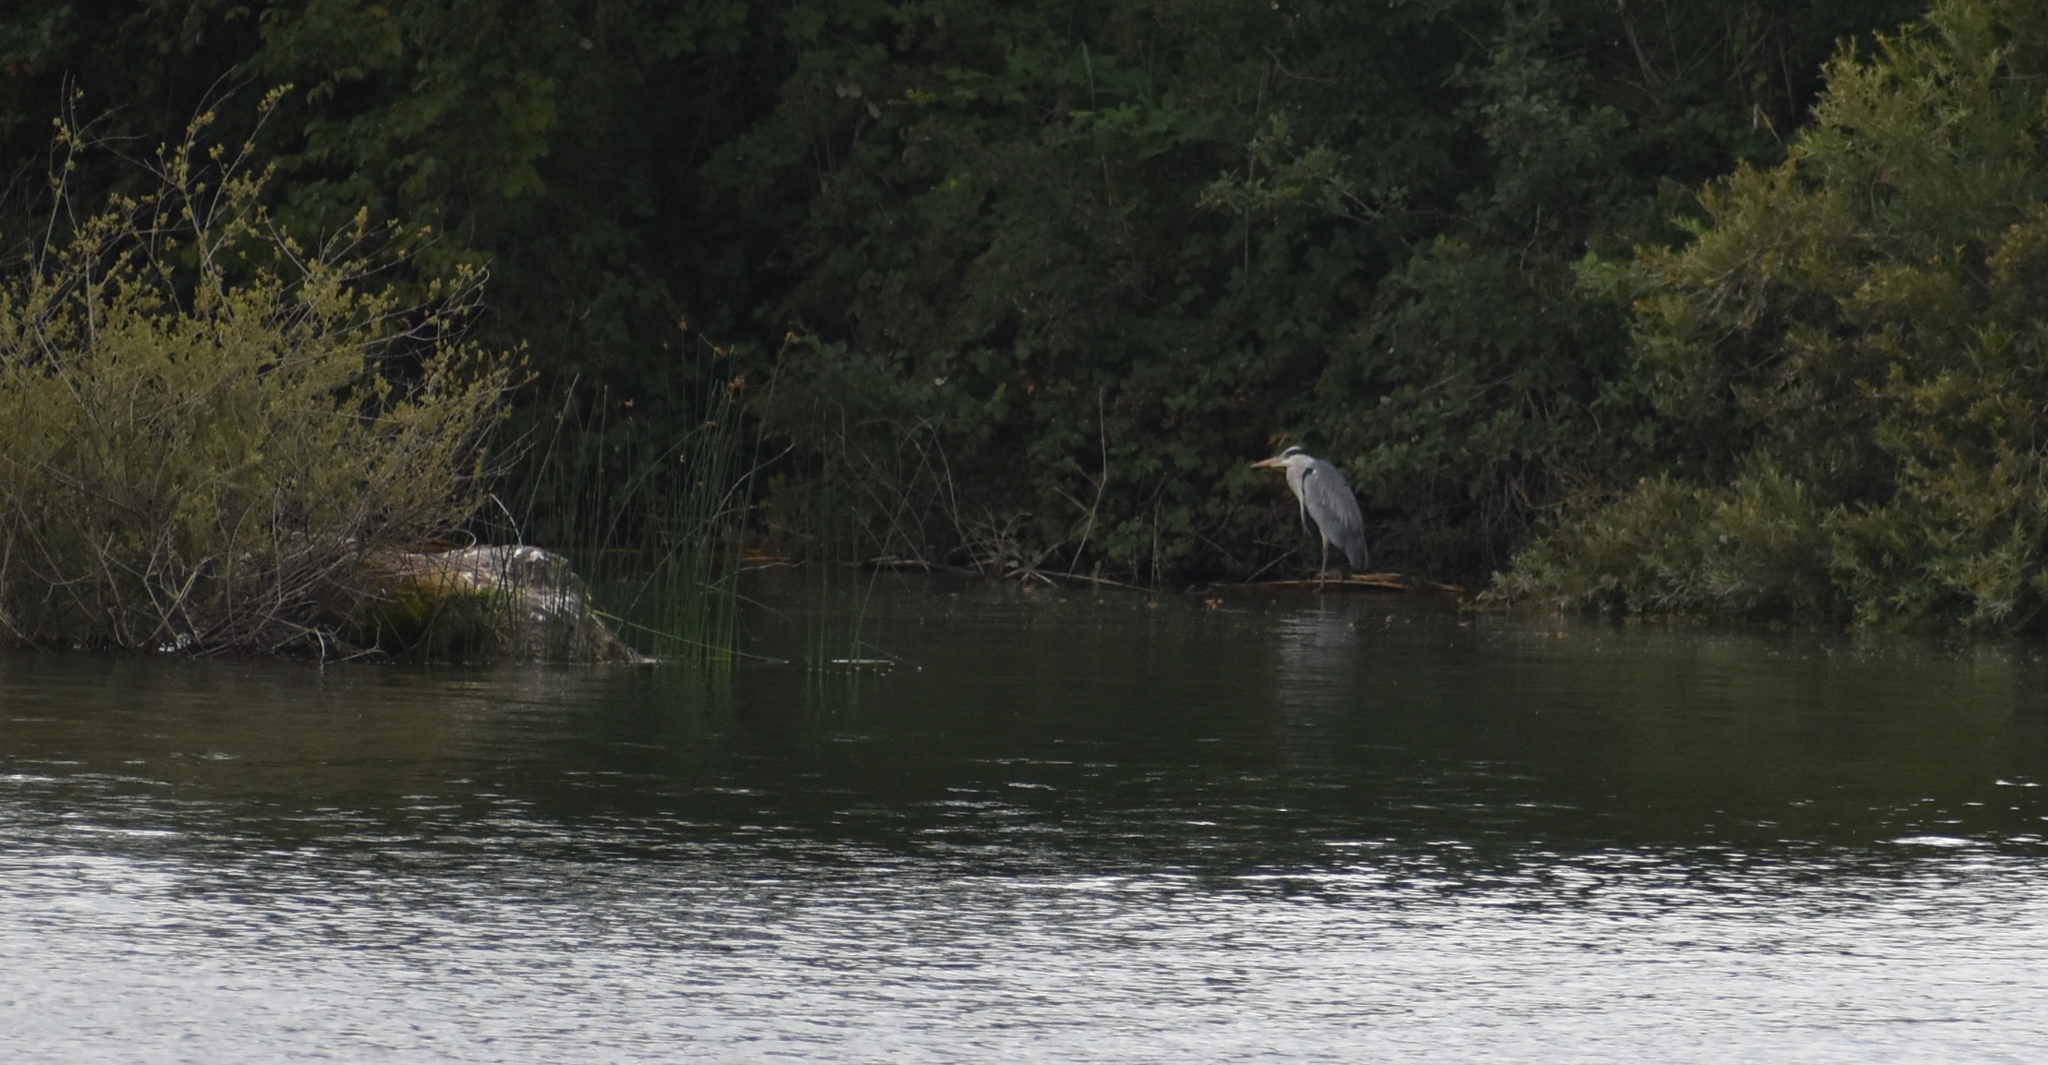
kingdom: Animalia
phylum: Chordata
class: Aves
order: Pelecaniformes
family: Ardeidae
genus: Ardea
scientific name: Ardea cinerea
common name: Grey heron
